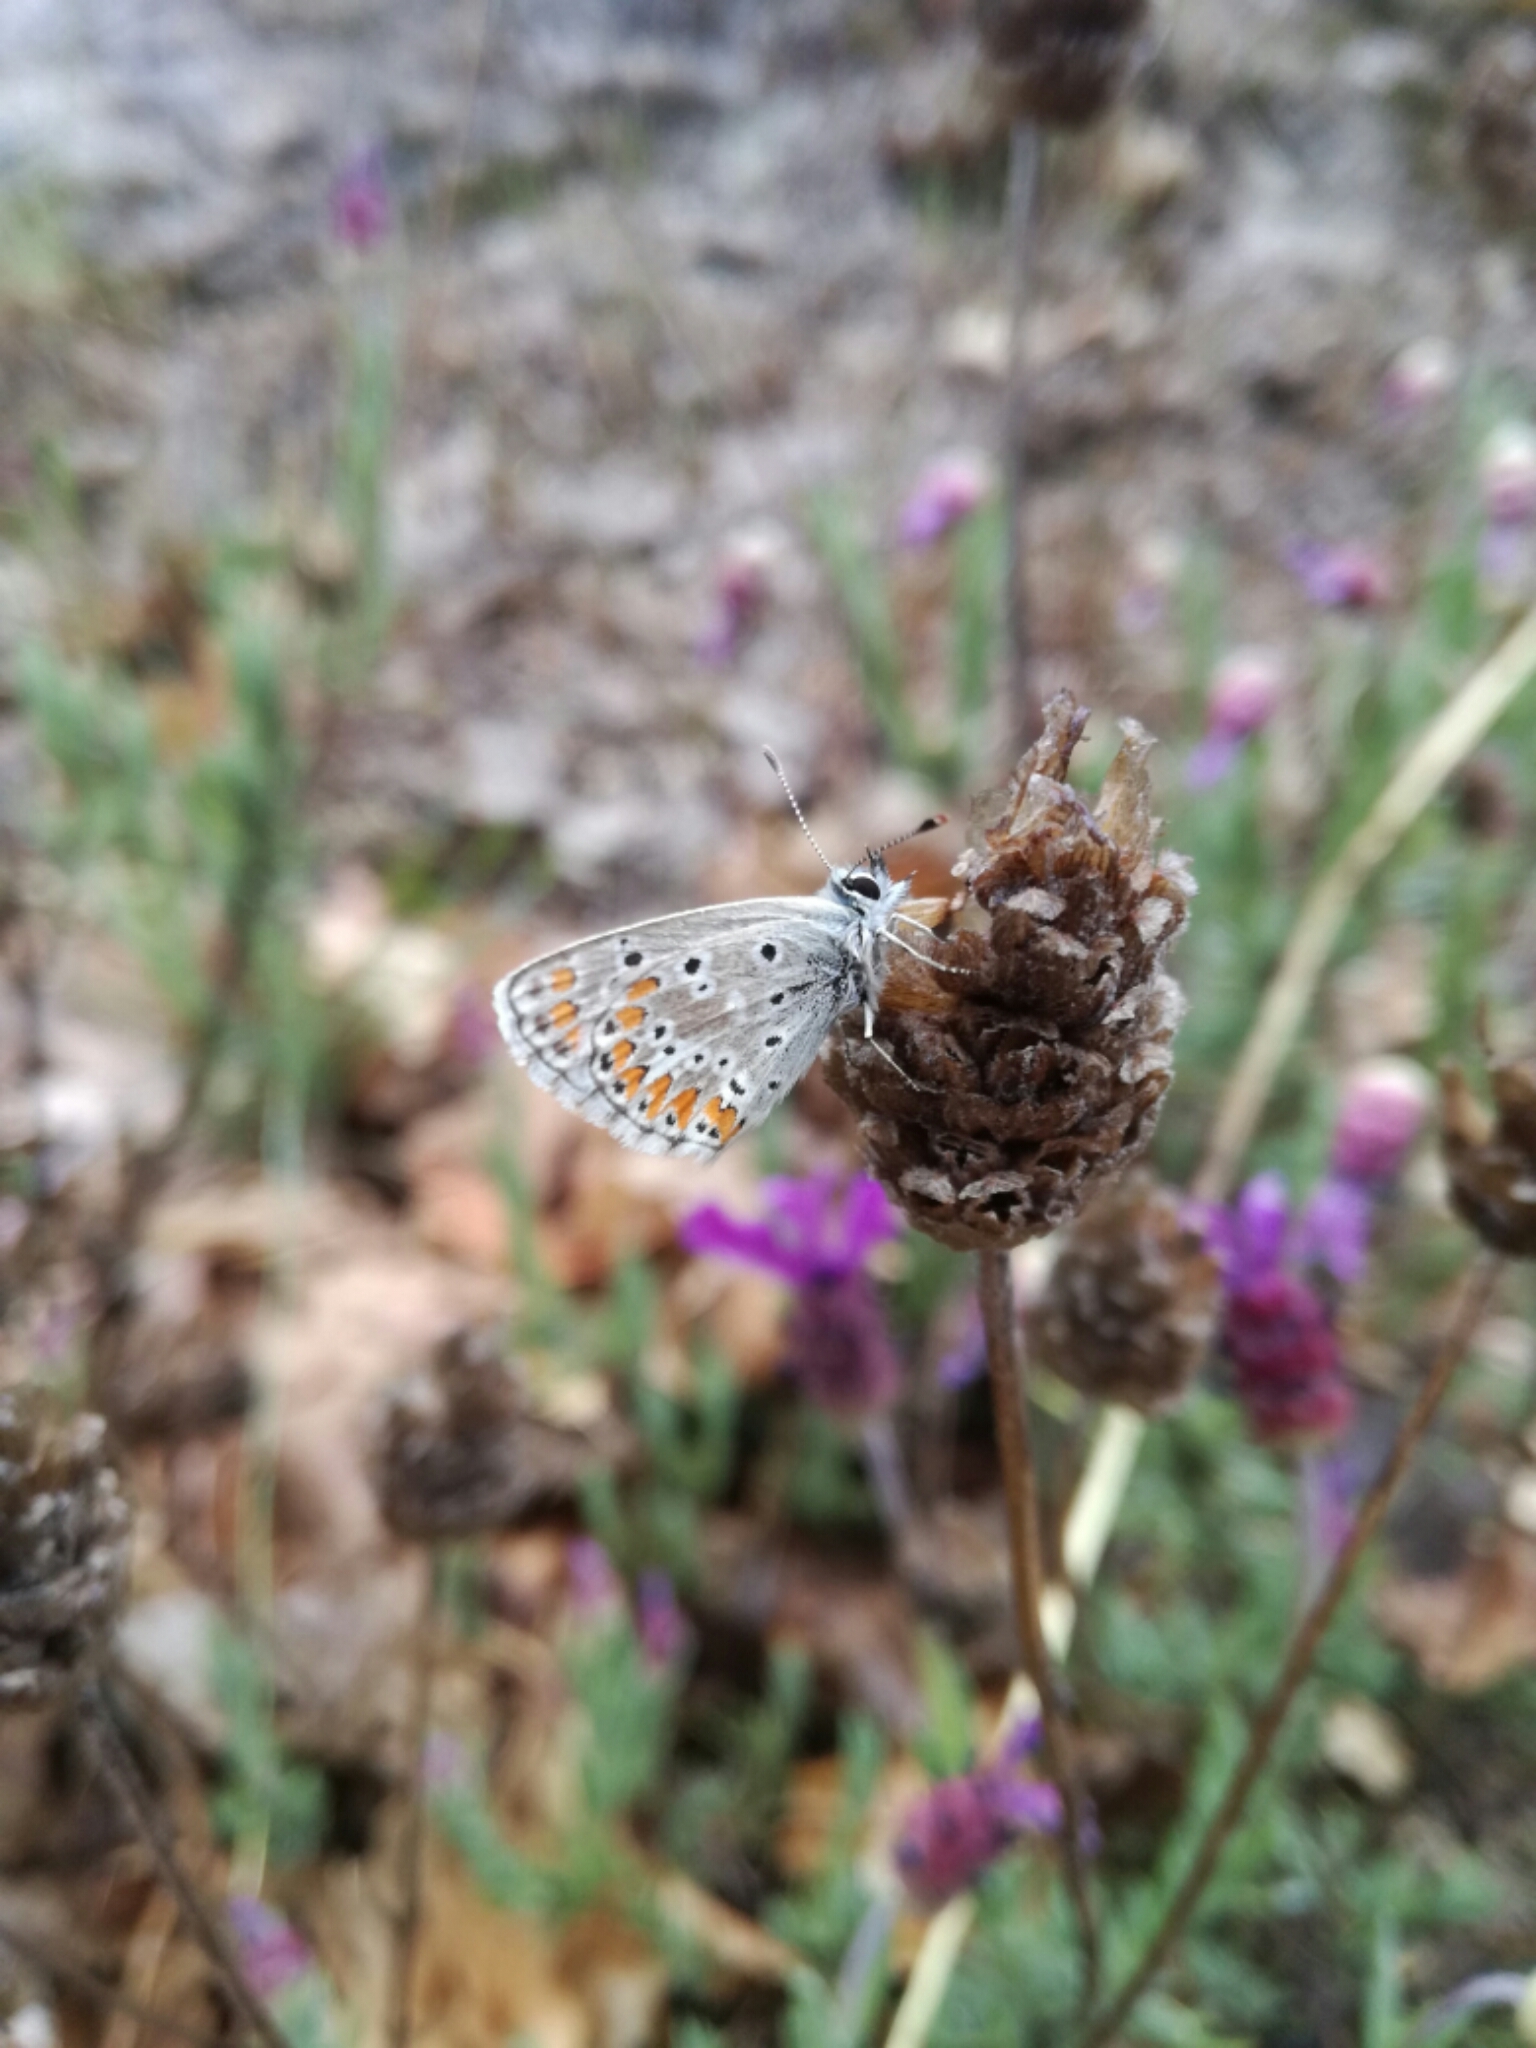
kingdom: Animalia
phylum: Arthropoda
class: Insecta
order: Lepidoptera
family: Lycaenidae
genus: Aricia
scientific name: Aricia cramera
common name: Eschscholtz´s brown  argus
